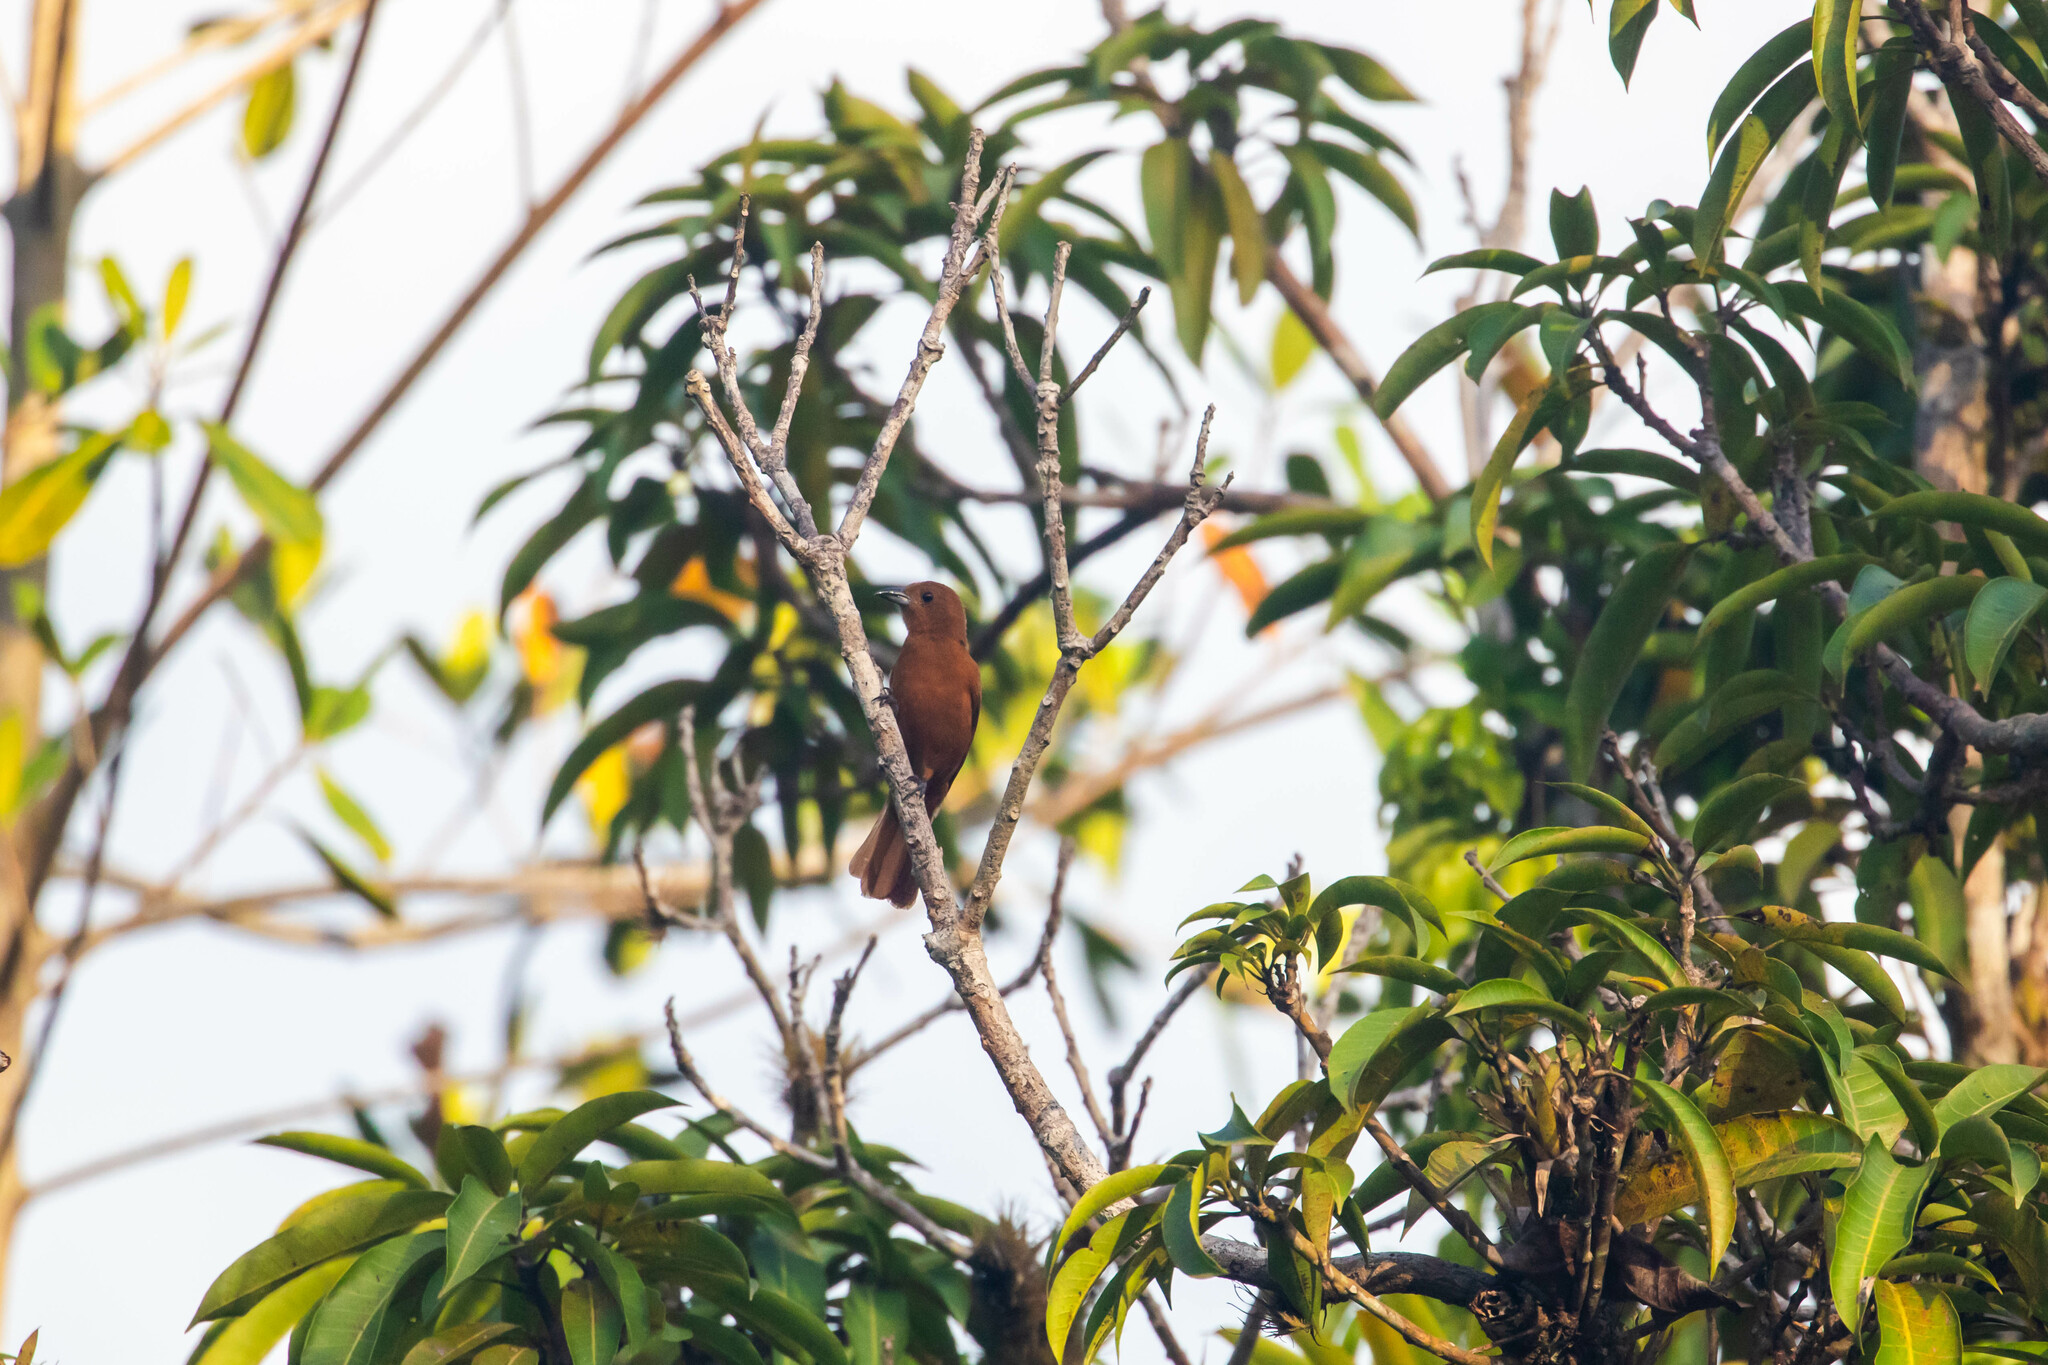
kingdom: Animalia
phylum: Chordata
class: Aves
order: Passeriformes
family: Thraupidae
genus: Tachyphonus
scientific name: Tachyphonus rufus
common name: White-lined tanager
